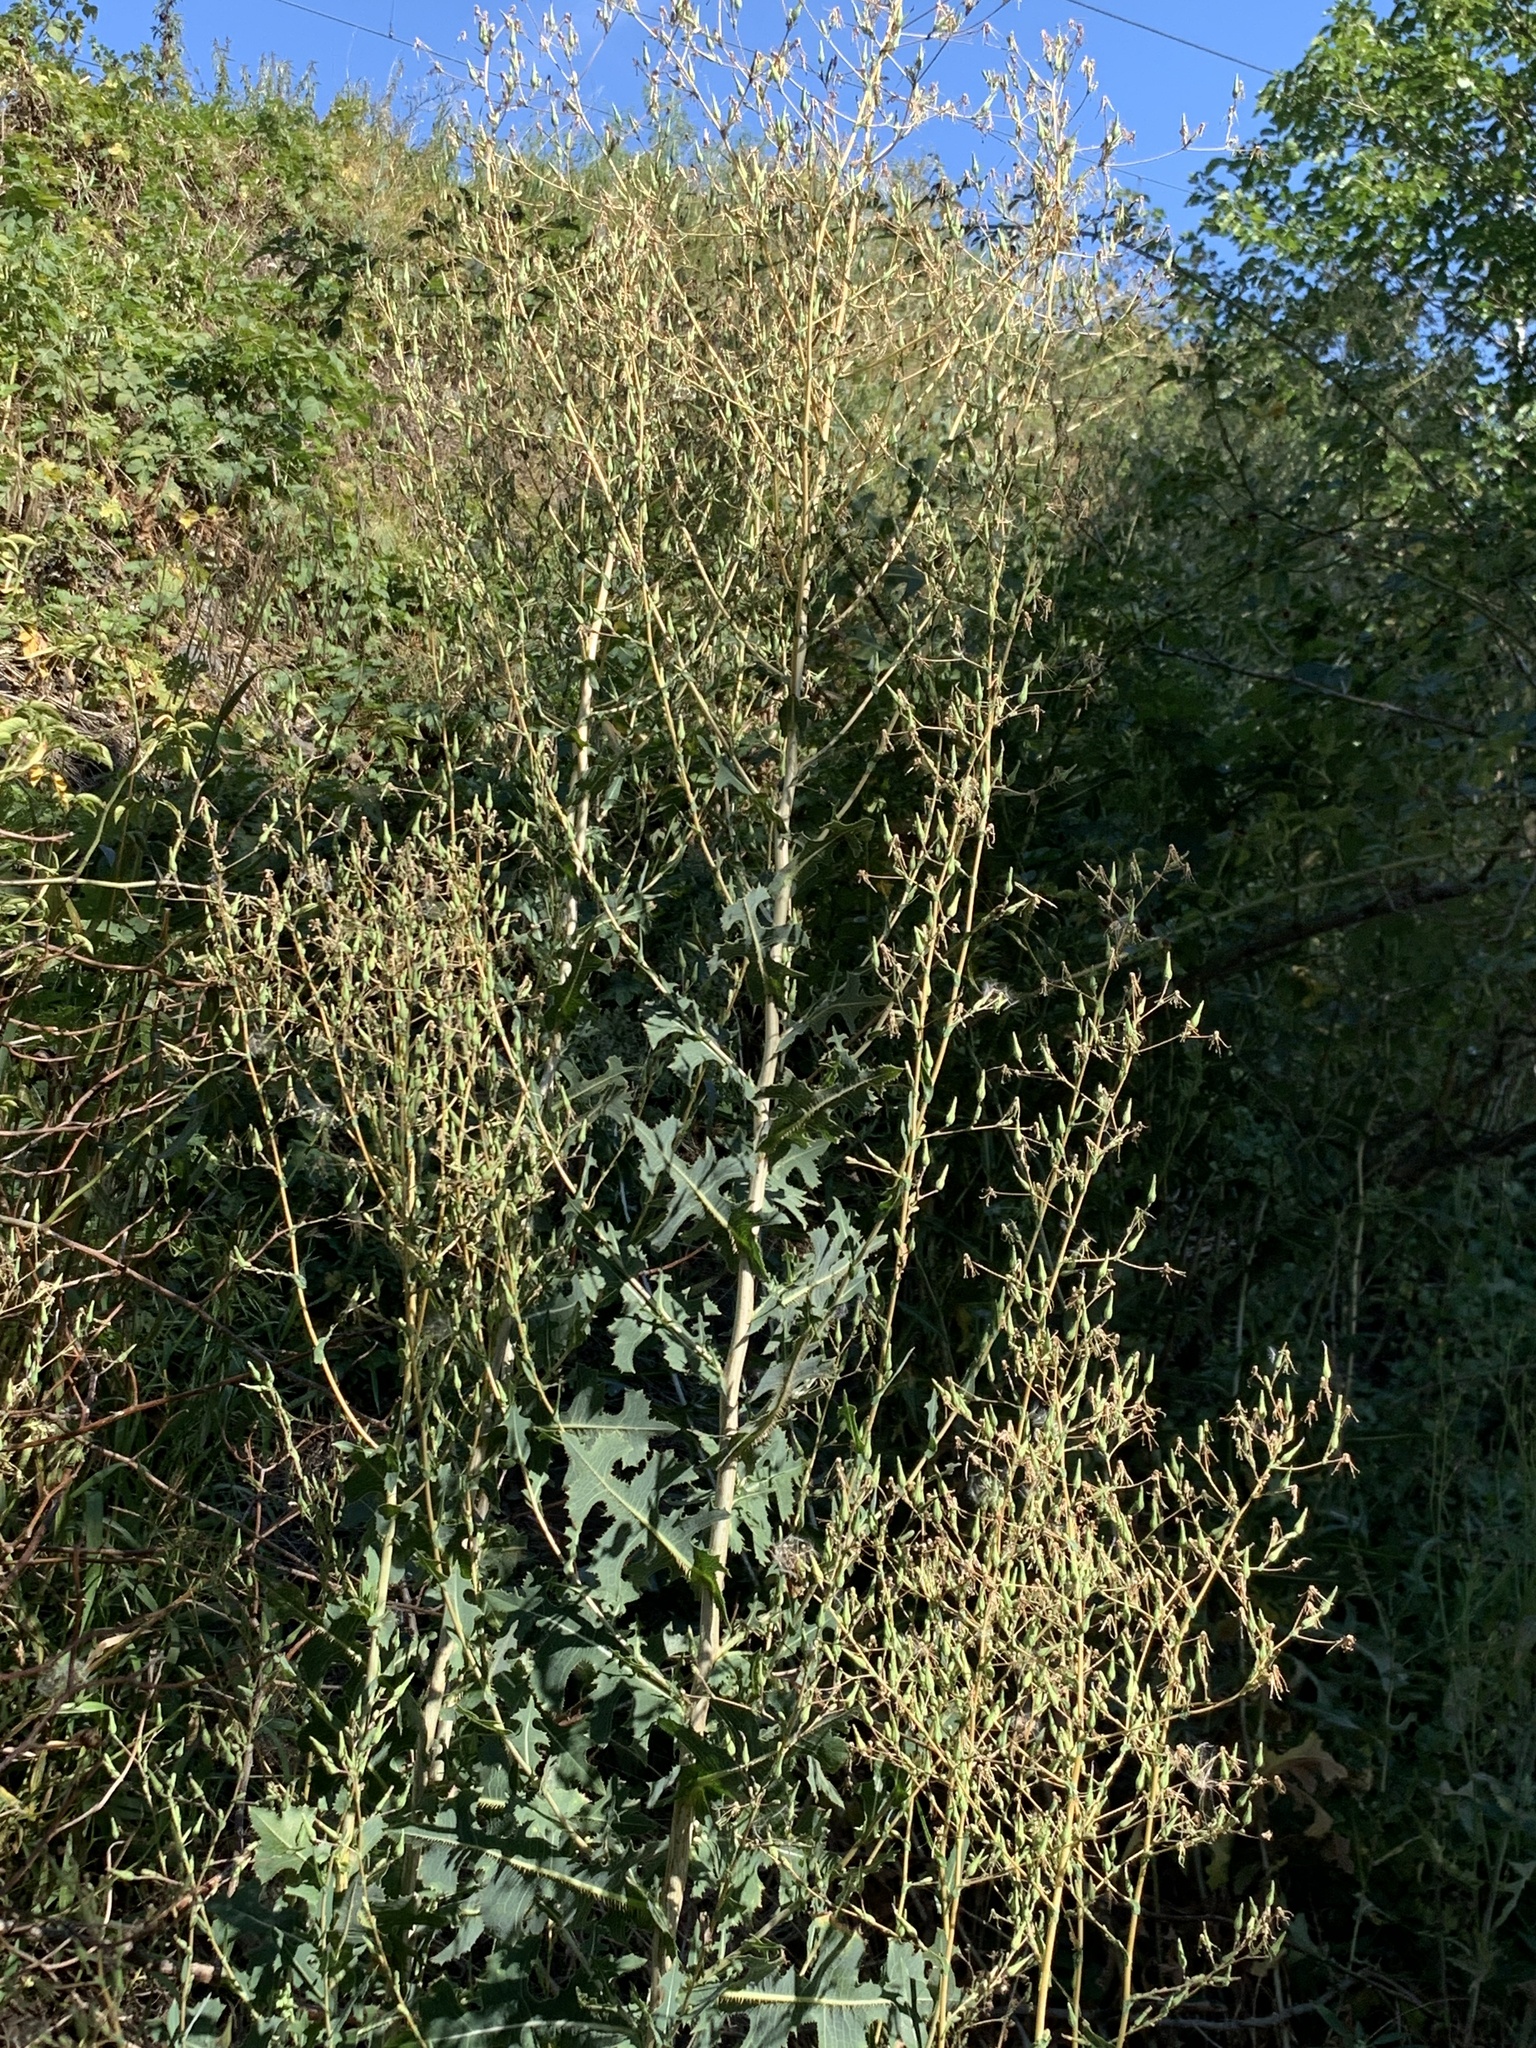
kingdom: Plantae
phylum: Tracheophyta
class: Magnoliopsida
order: Asterales
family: Asteraceae
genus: Lactuca
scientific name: Lactuca serriola
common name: Prickly lettuce
